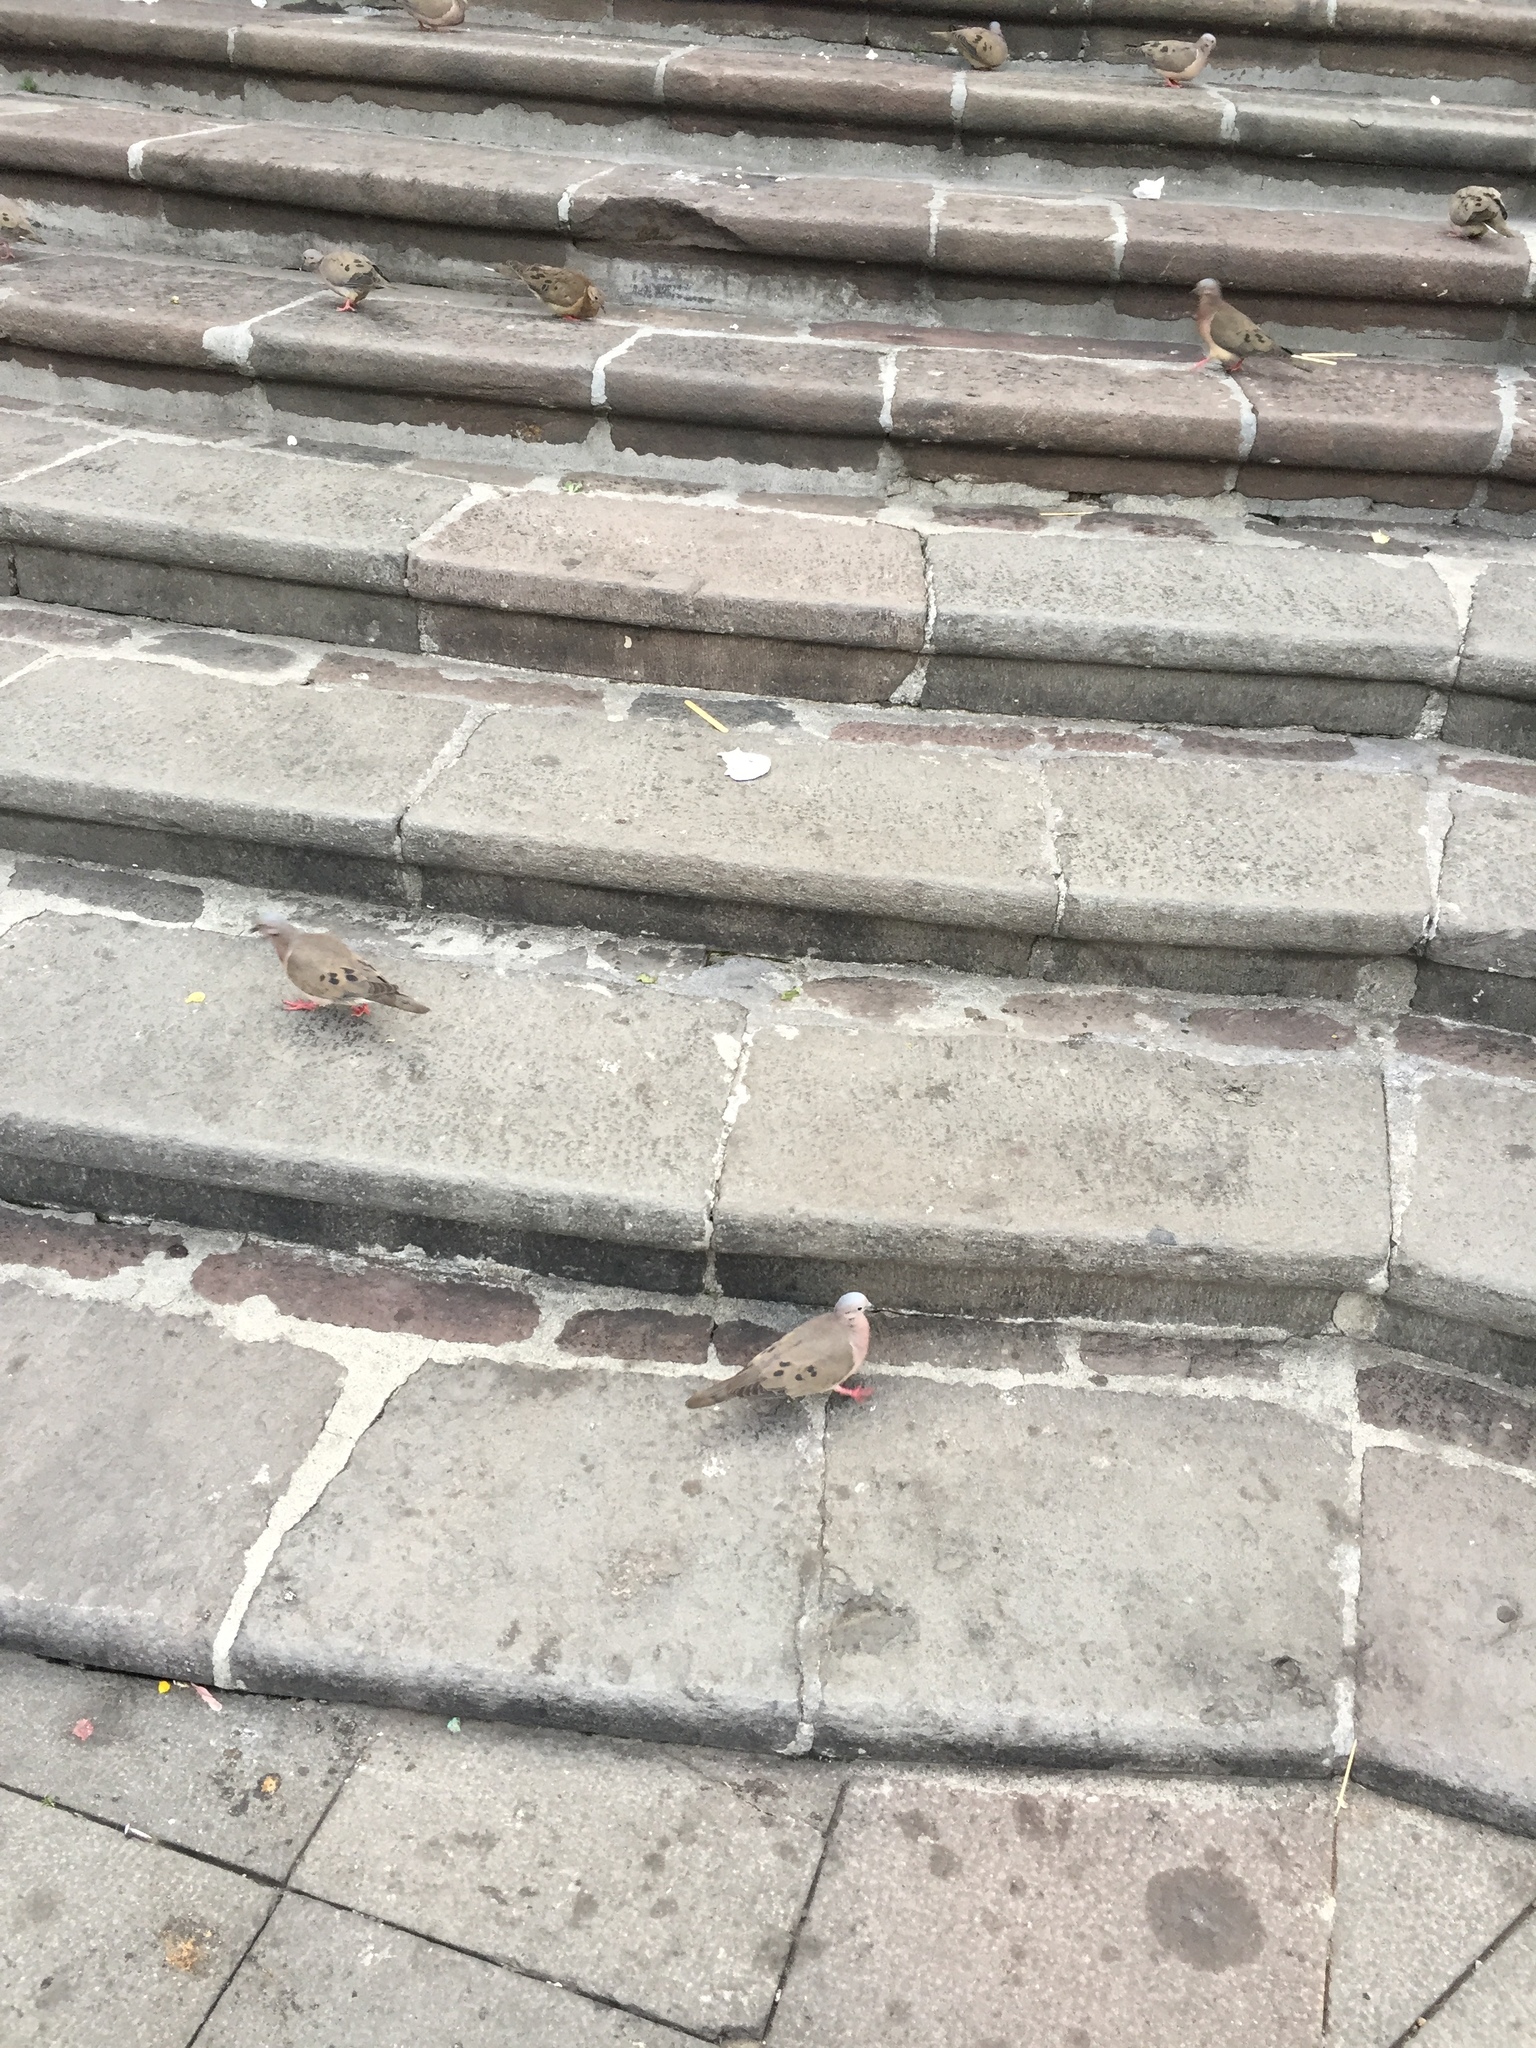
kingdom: Animalia
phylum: Chordata
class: Aves
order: Columbiformes
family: Columbidae
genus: Zenaida
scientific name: Zenaida auriculata
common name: Eared dove
